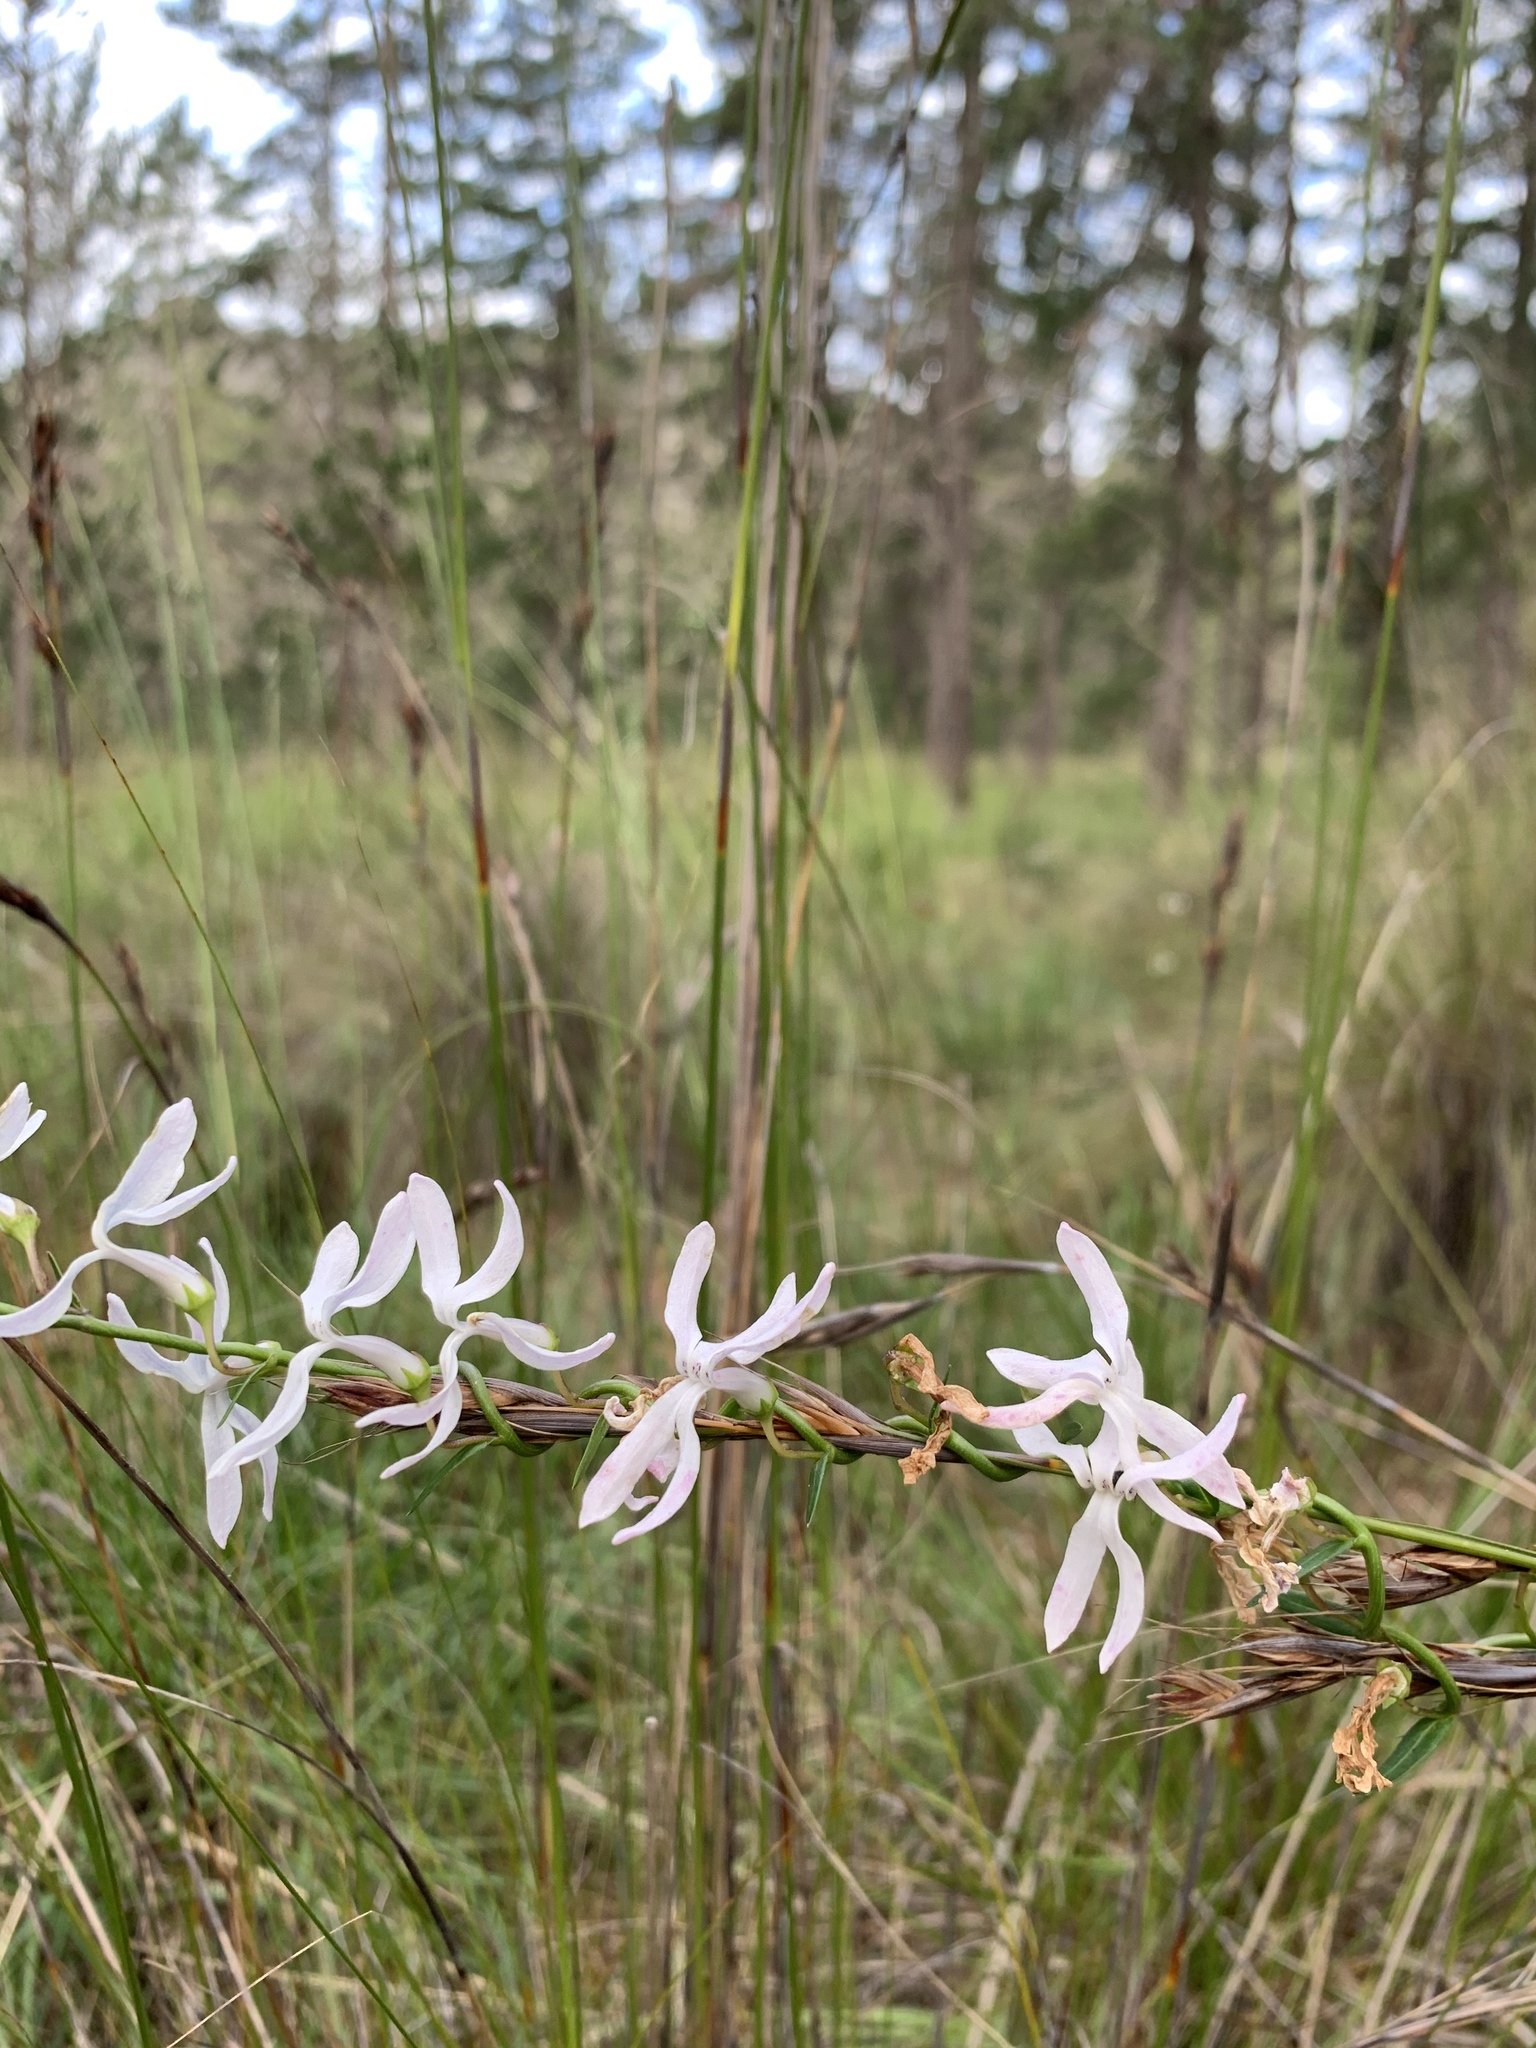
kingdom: Plantae
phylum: Tracheophyta
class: Magnoliopsida
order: Asterales
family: Campanulaceae
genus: Cyphia
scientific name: Cyphia volubilis
